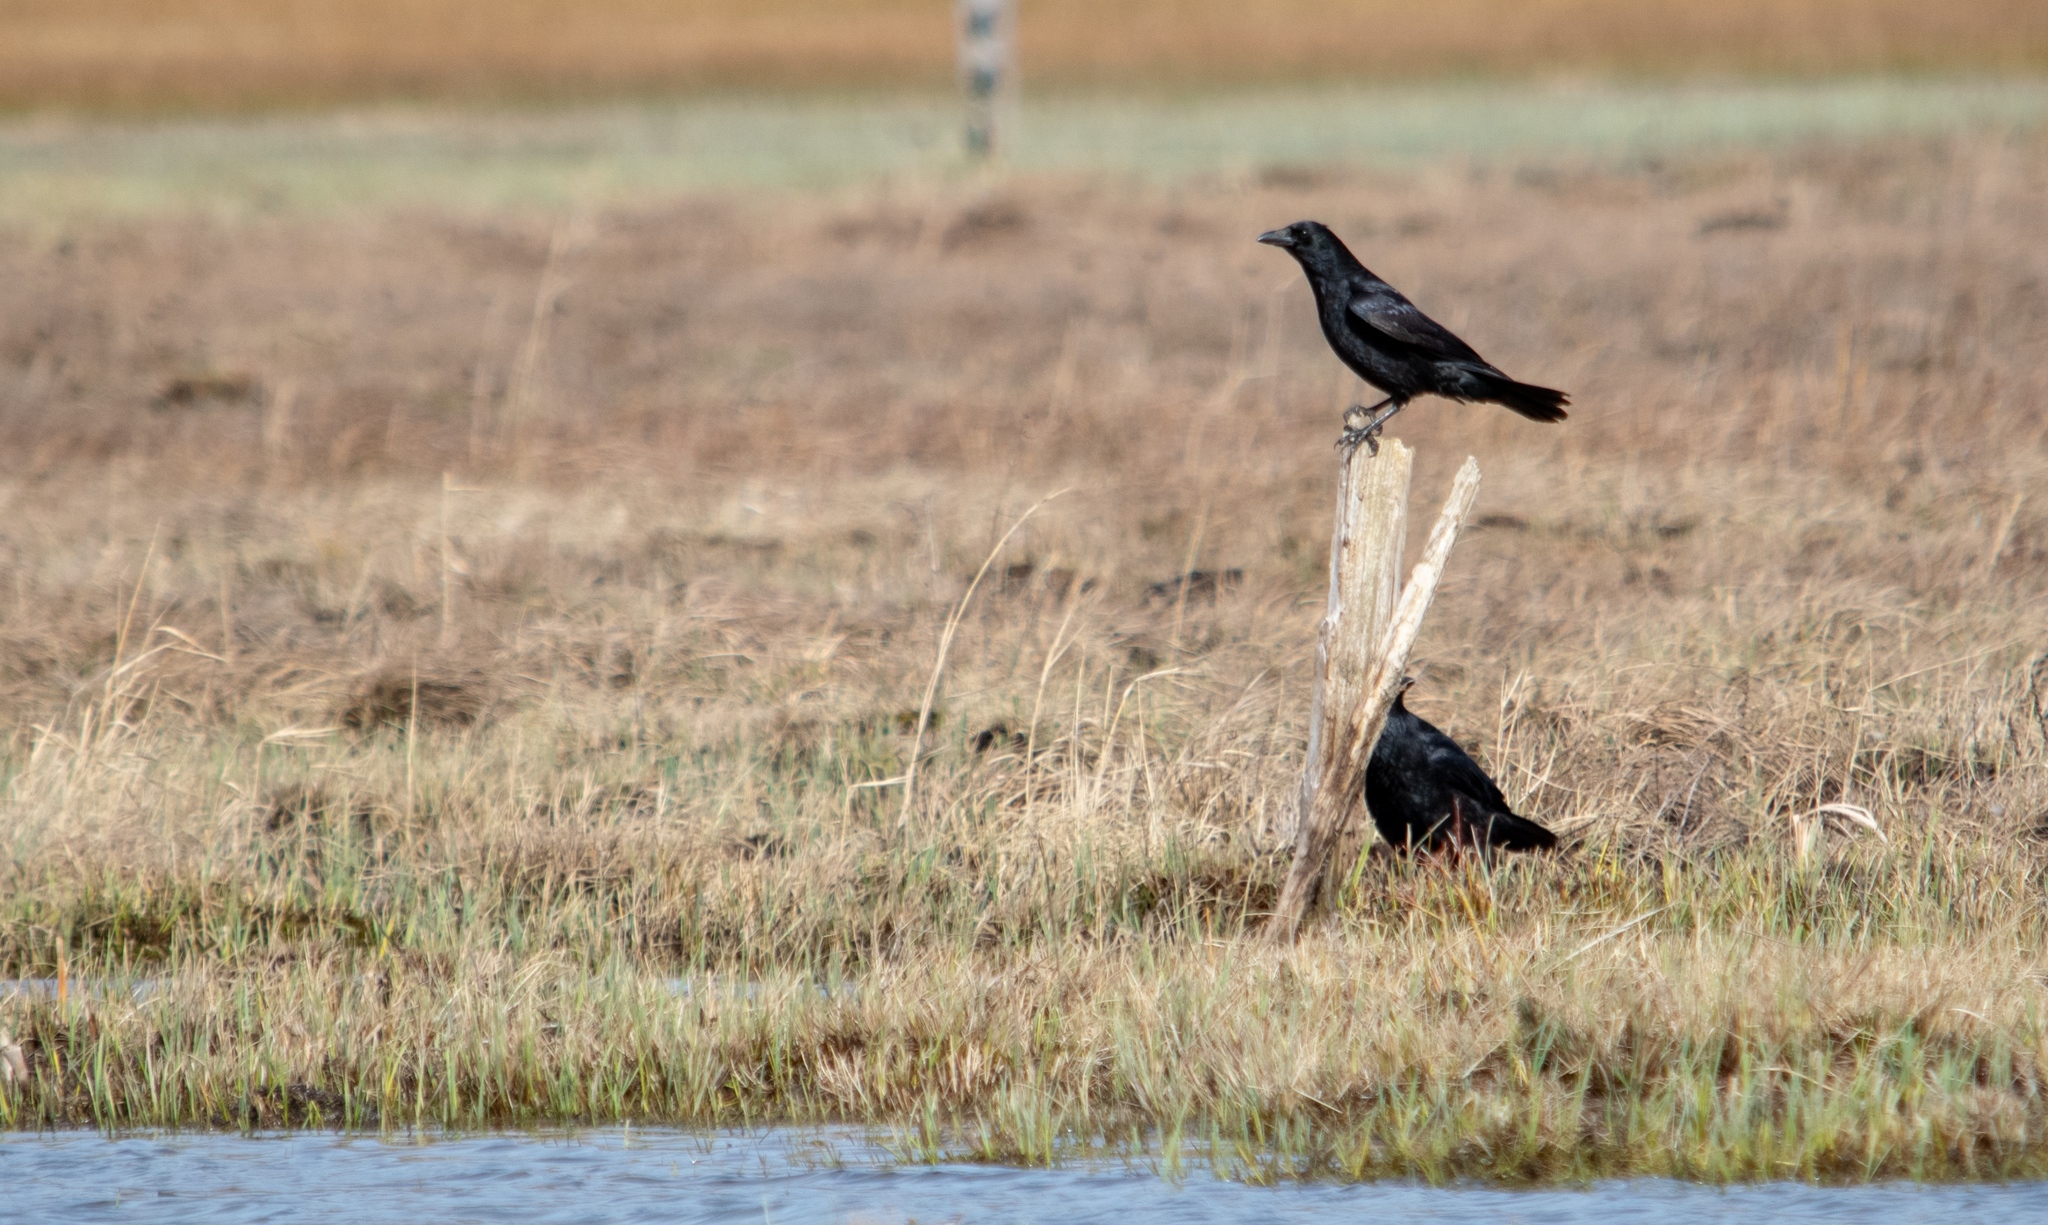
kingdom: Animalia
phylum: Chordata
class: Aves
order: Passeriformes
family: Corvidae
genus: Corvus
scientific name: Corvus corone
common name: Carrion crow
